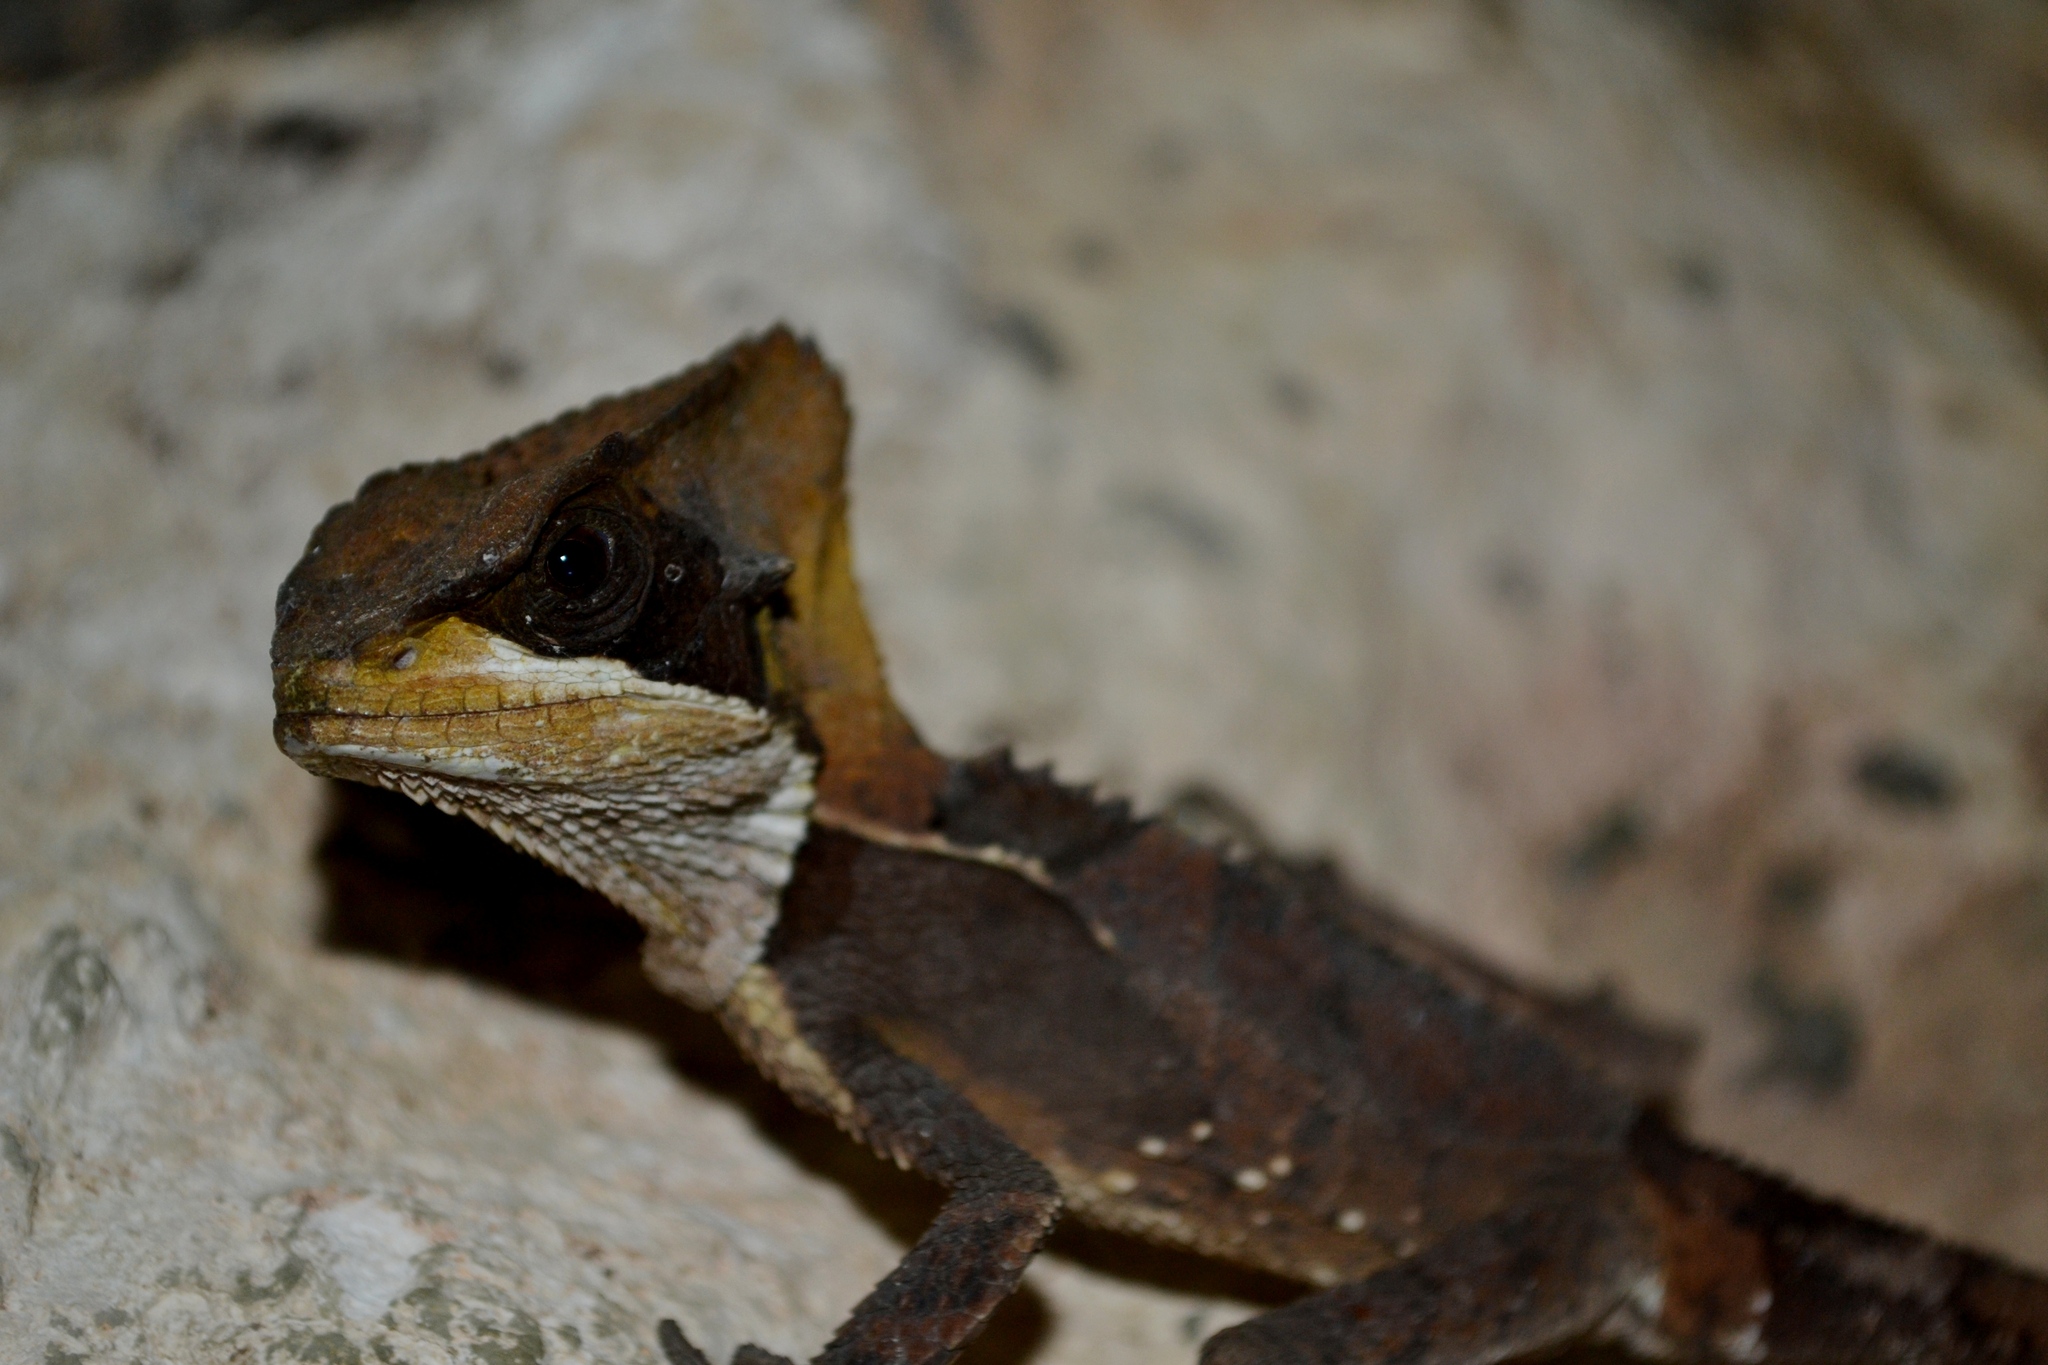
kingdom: Animalia
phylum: Chordata
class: Squamata
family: Corytophanidae
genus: Corytophanes
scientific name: Corytophanes hernandesii
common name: Hernandez’s helmeted basilisk
